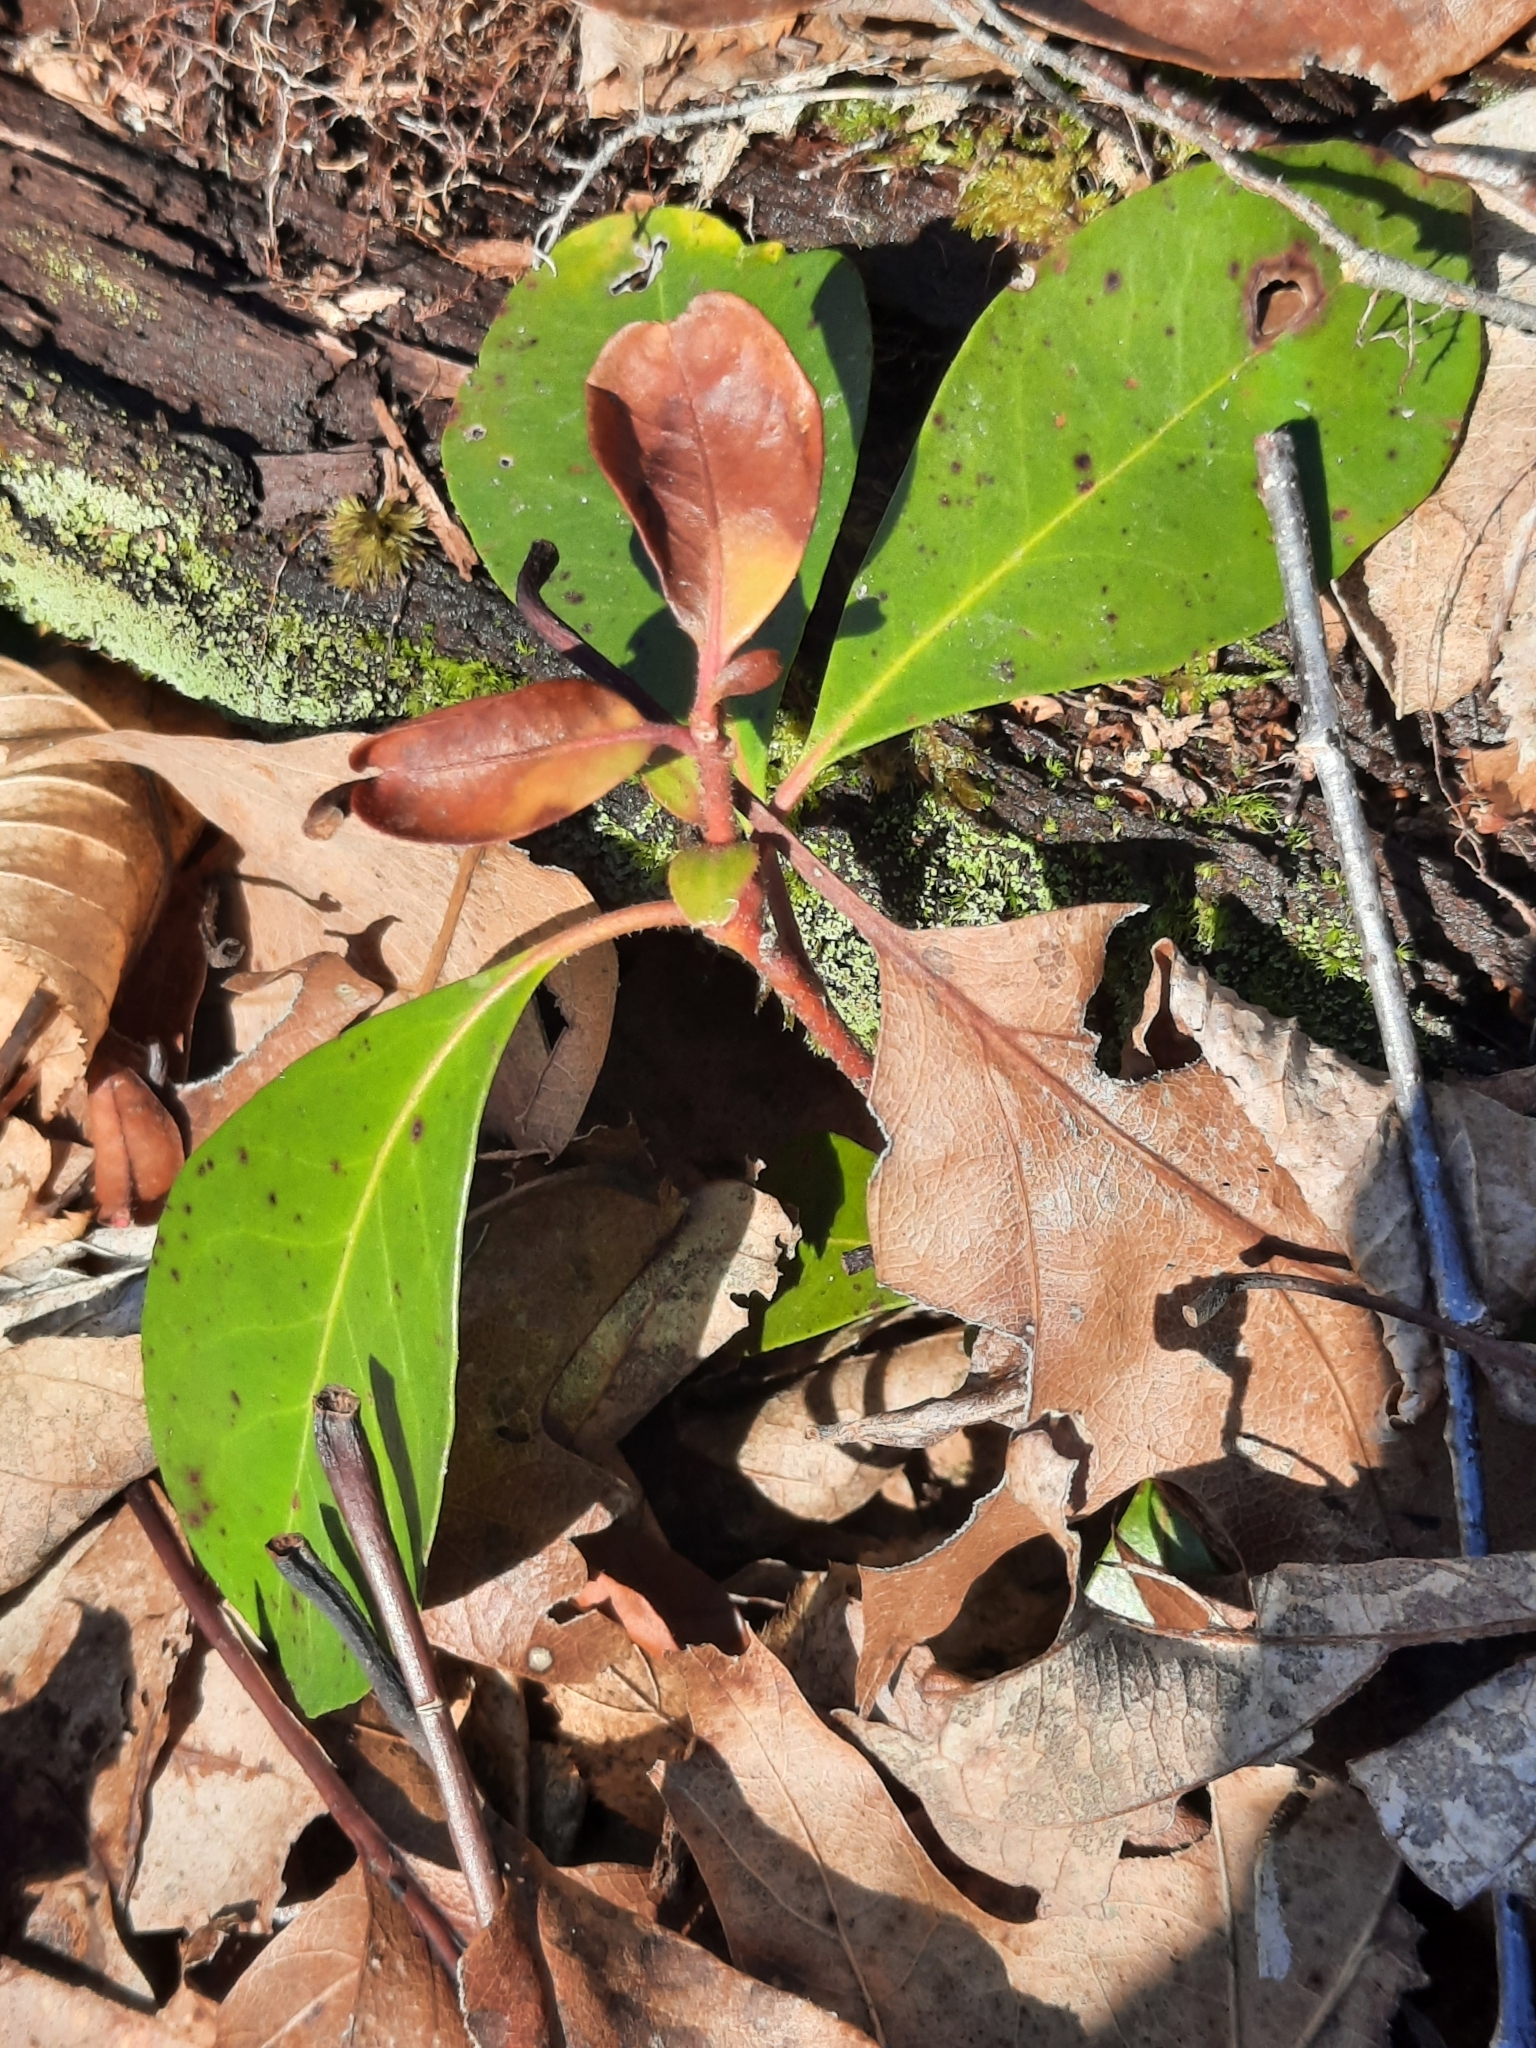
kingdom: Plantae
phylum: Tracheophyta
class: Magnoliopsida
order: Ericales
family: Ericaceae
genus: Kalmia
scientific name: Kalmia latifolia
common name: Mountain-laurel
